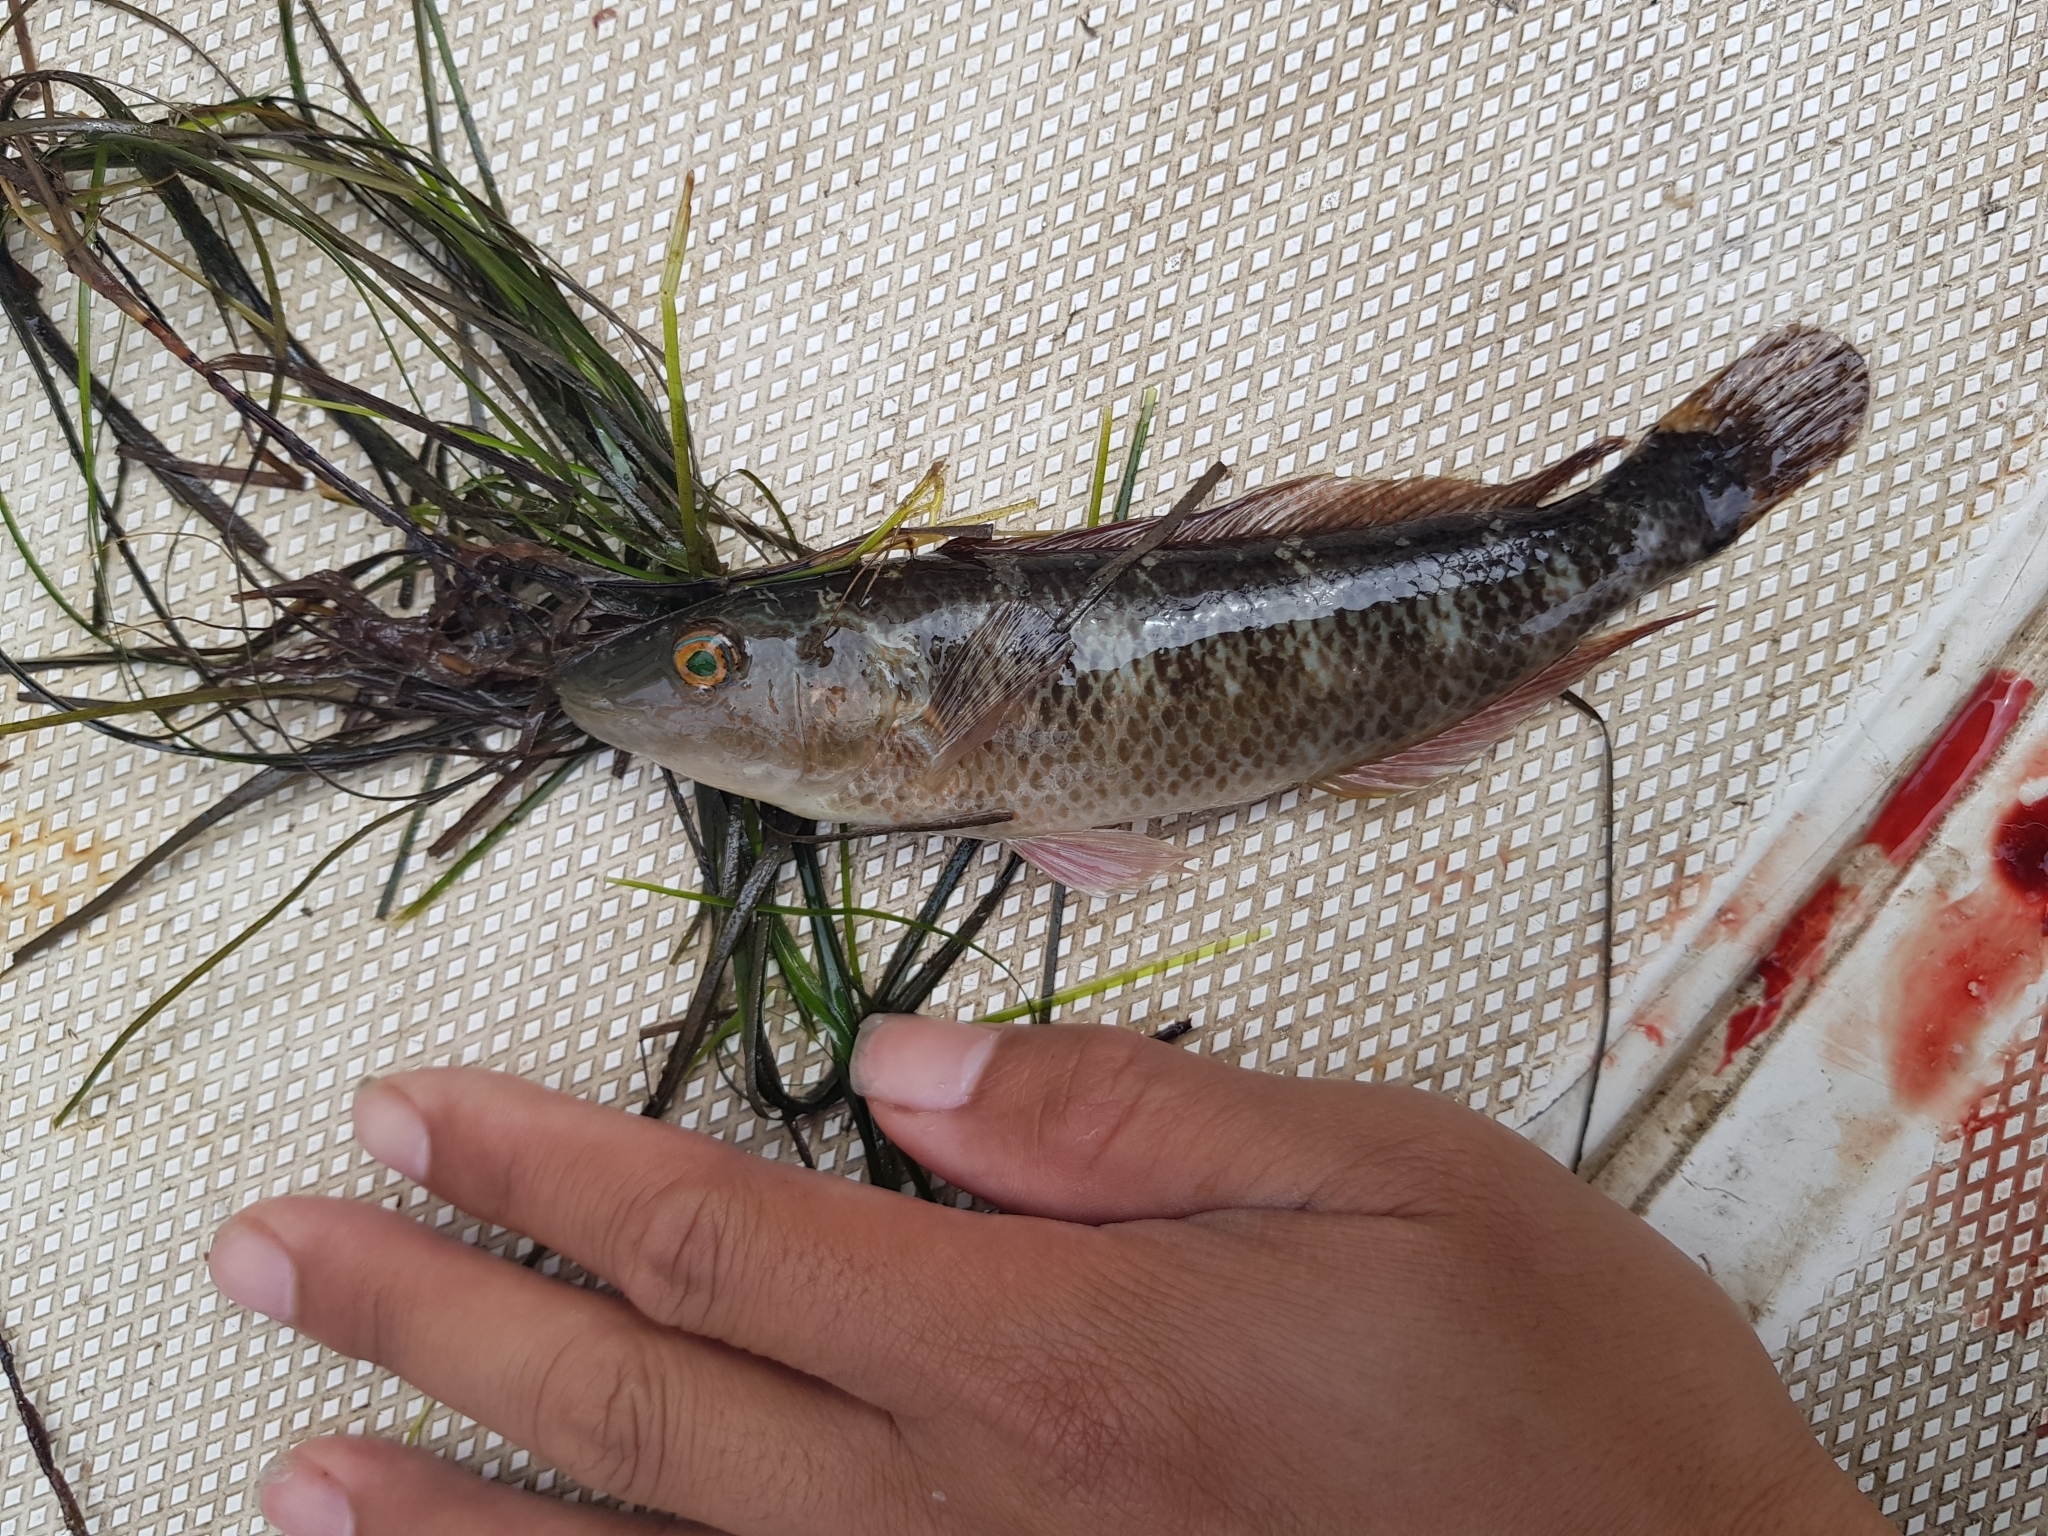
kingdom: Animalia
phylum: Chordata
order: Perciformes
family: Odacidae
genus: Neoodax
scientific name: Neoodax balteatus
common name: Ground mullet
